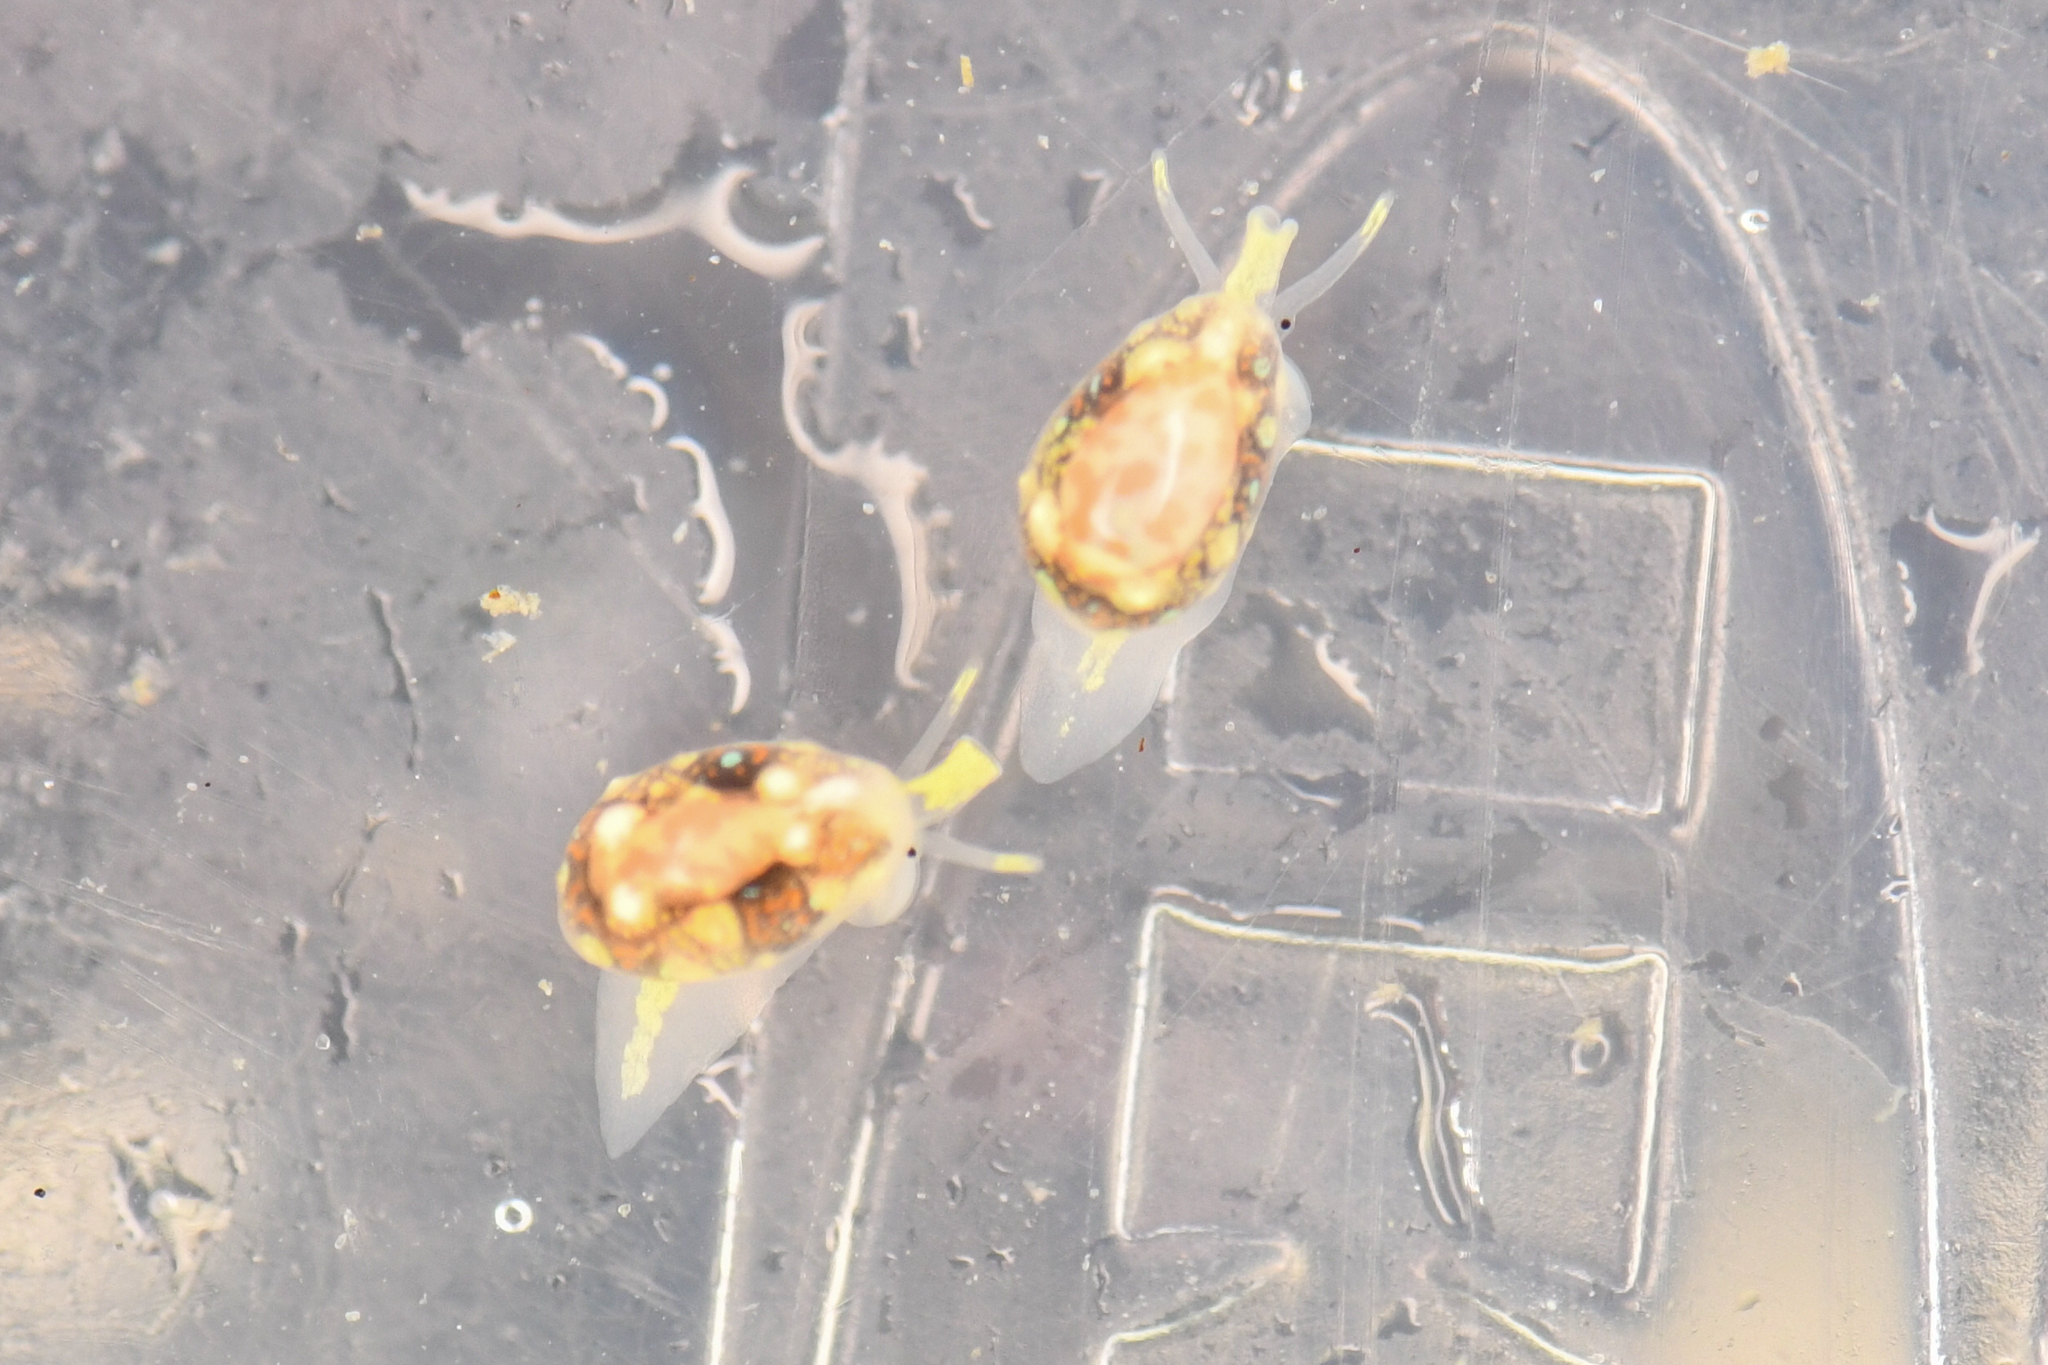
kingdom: Animalia
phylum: Mollusca
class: Gastropoda
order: Neogastropoda
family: Granulinidae
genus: Granulina
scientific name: Granulina margaritula
